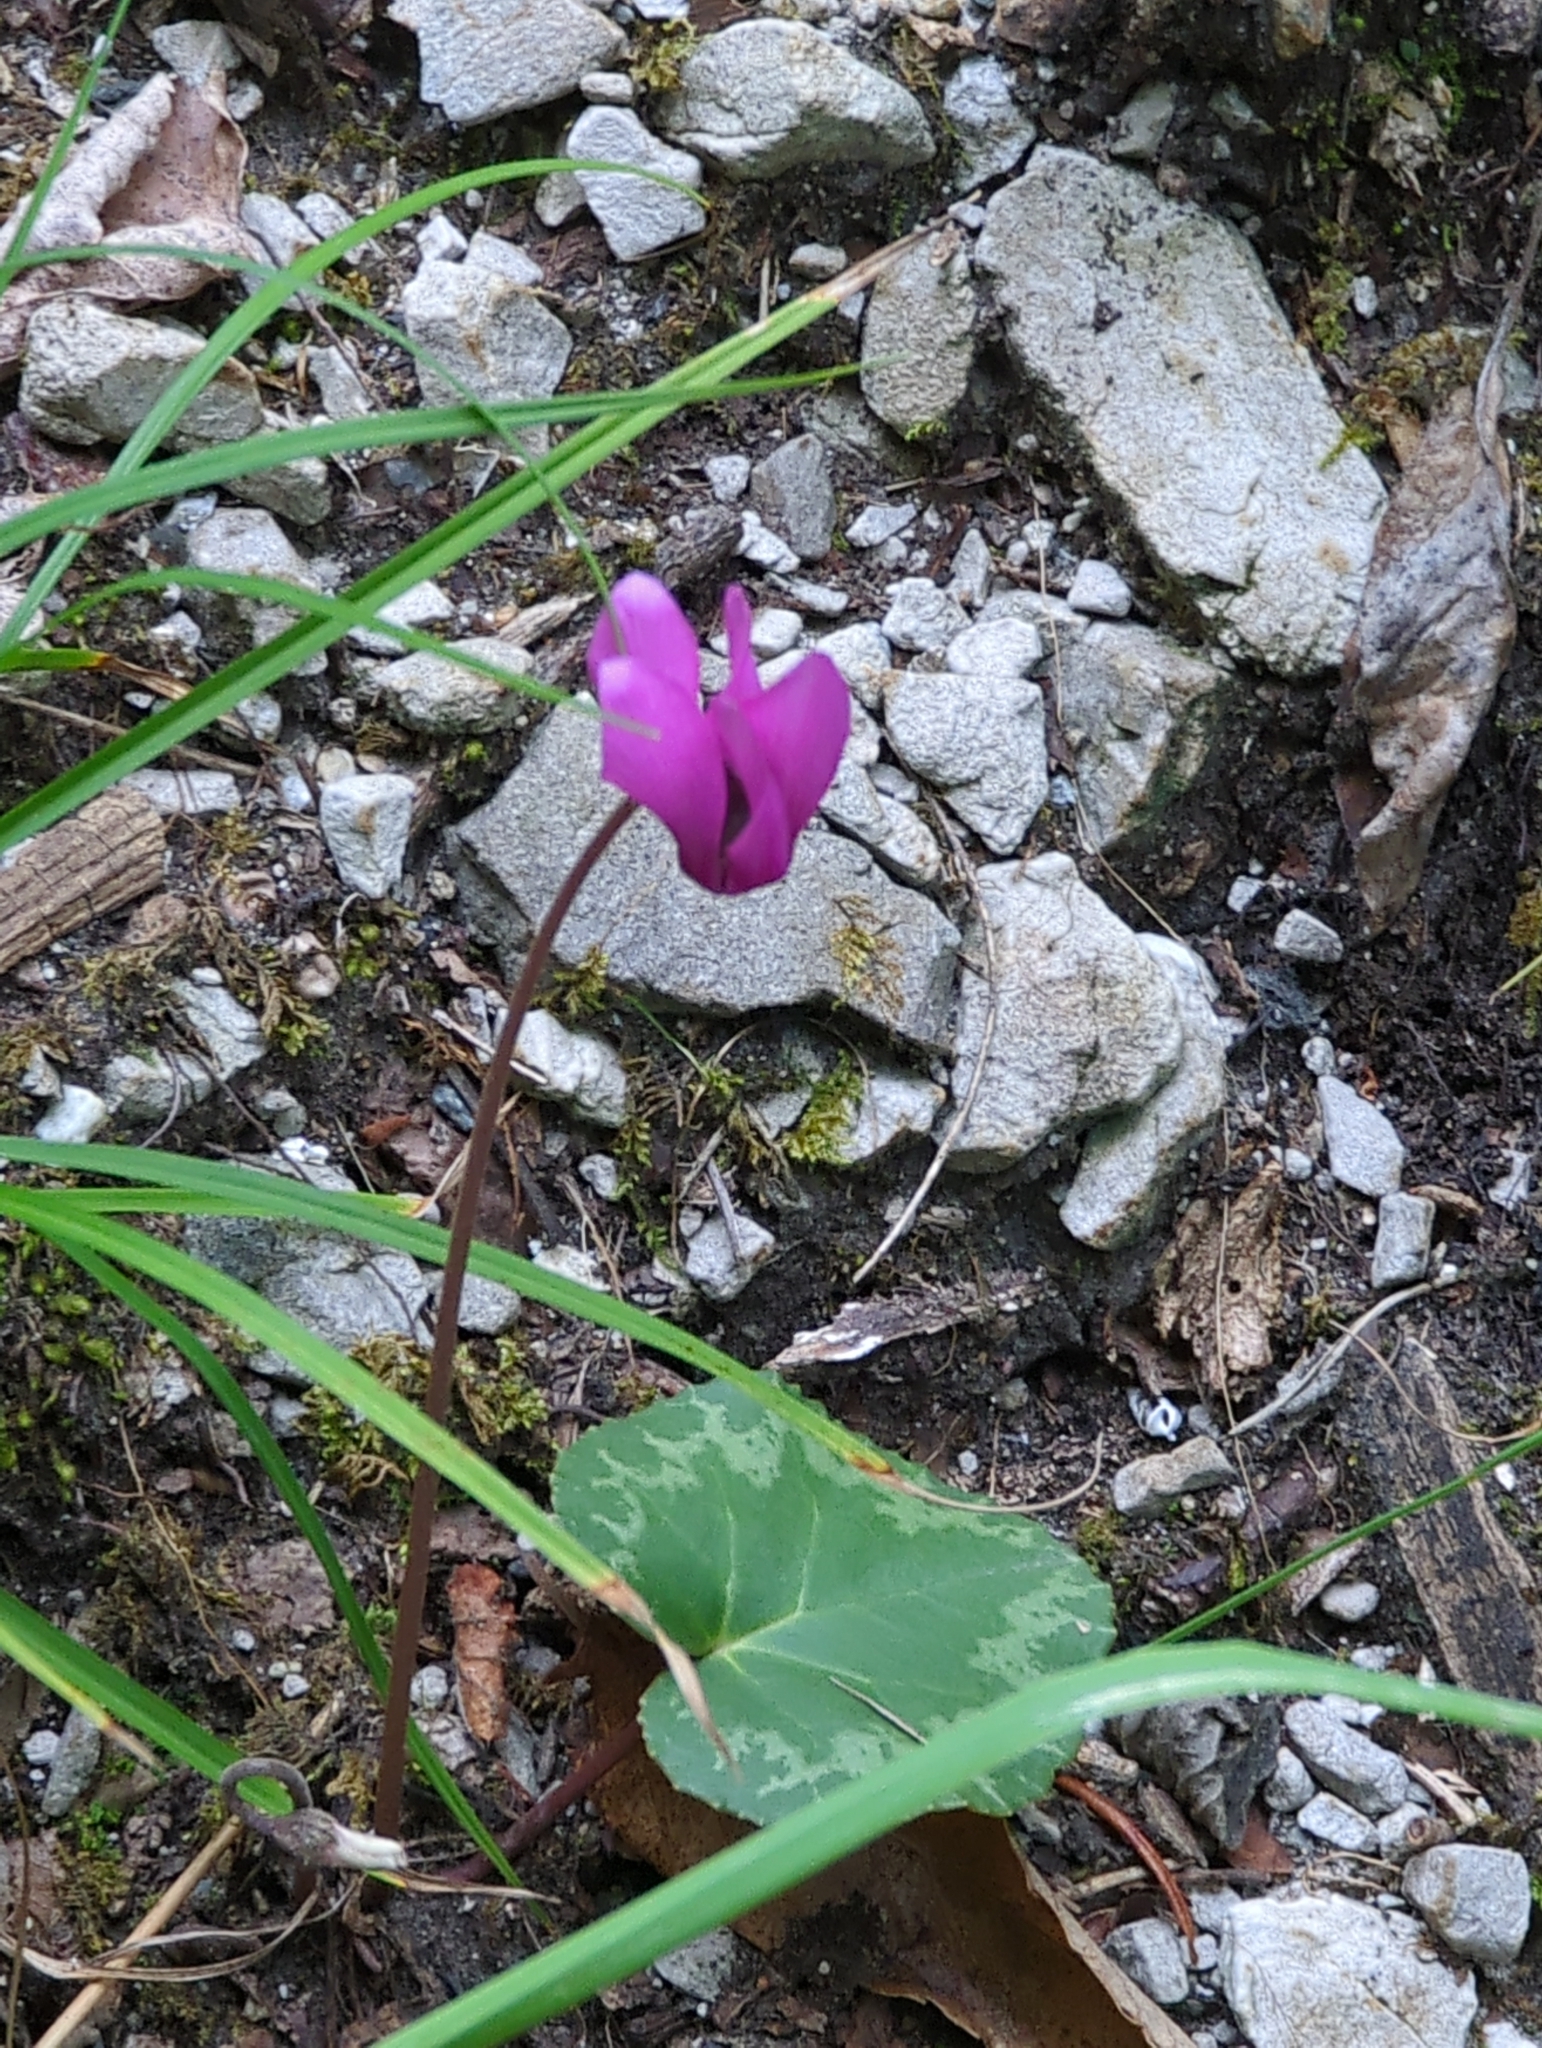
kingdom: Plantae
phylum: Tracheophyta
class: Magnoliopsida
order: Ericales
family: Primulaceae
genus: Cyclamen
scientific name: Cyclamen purpurascens
